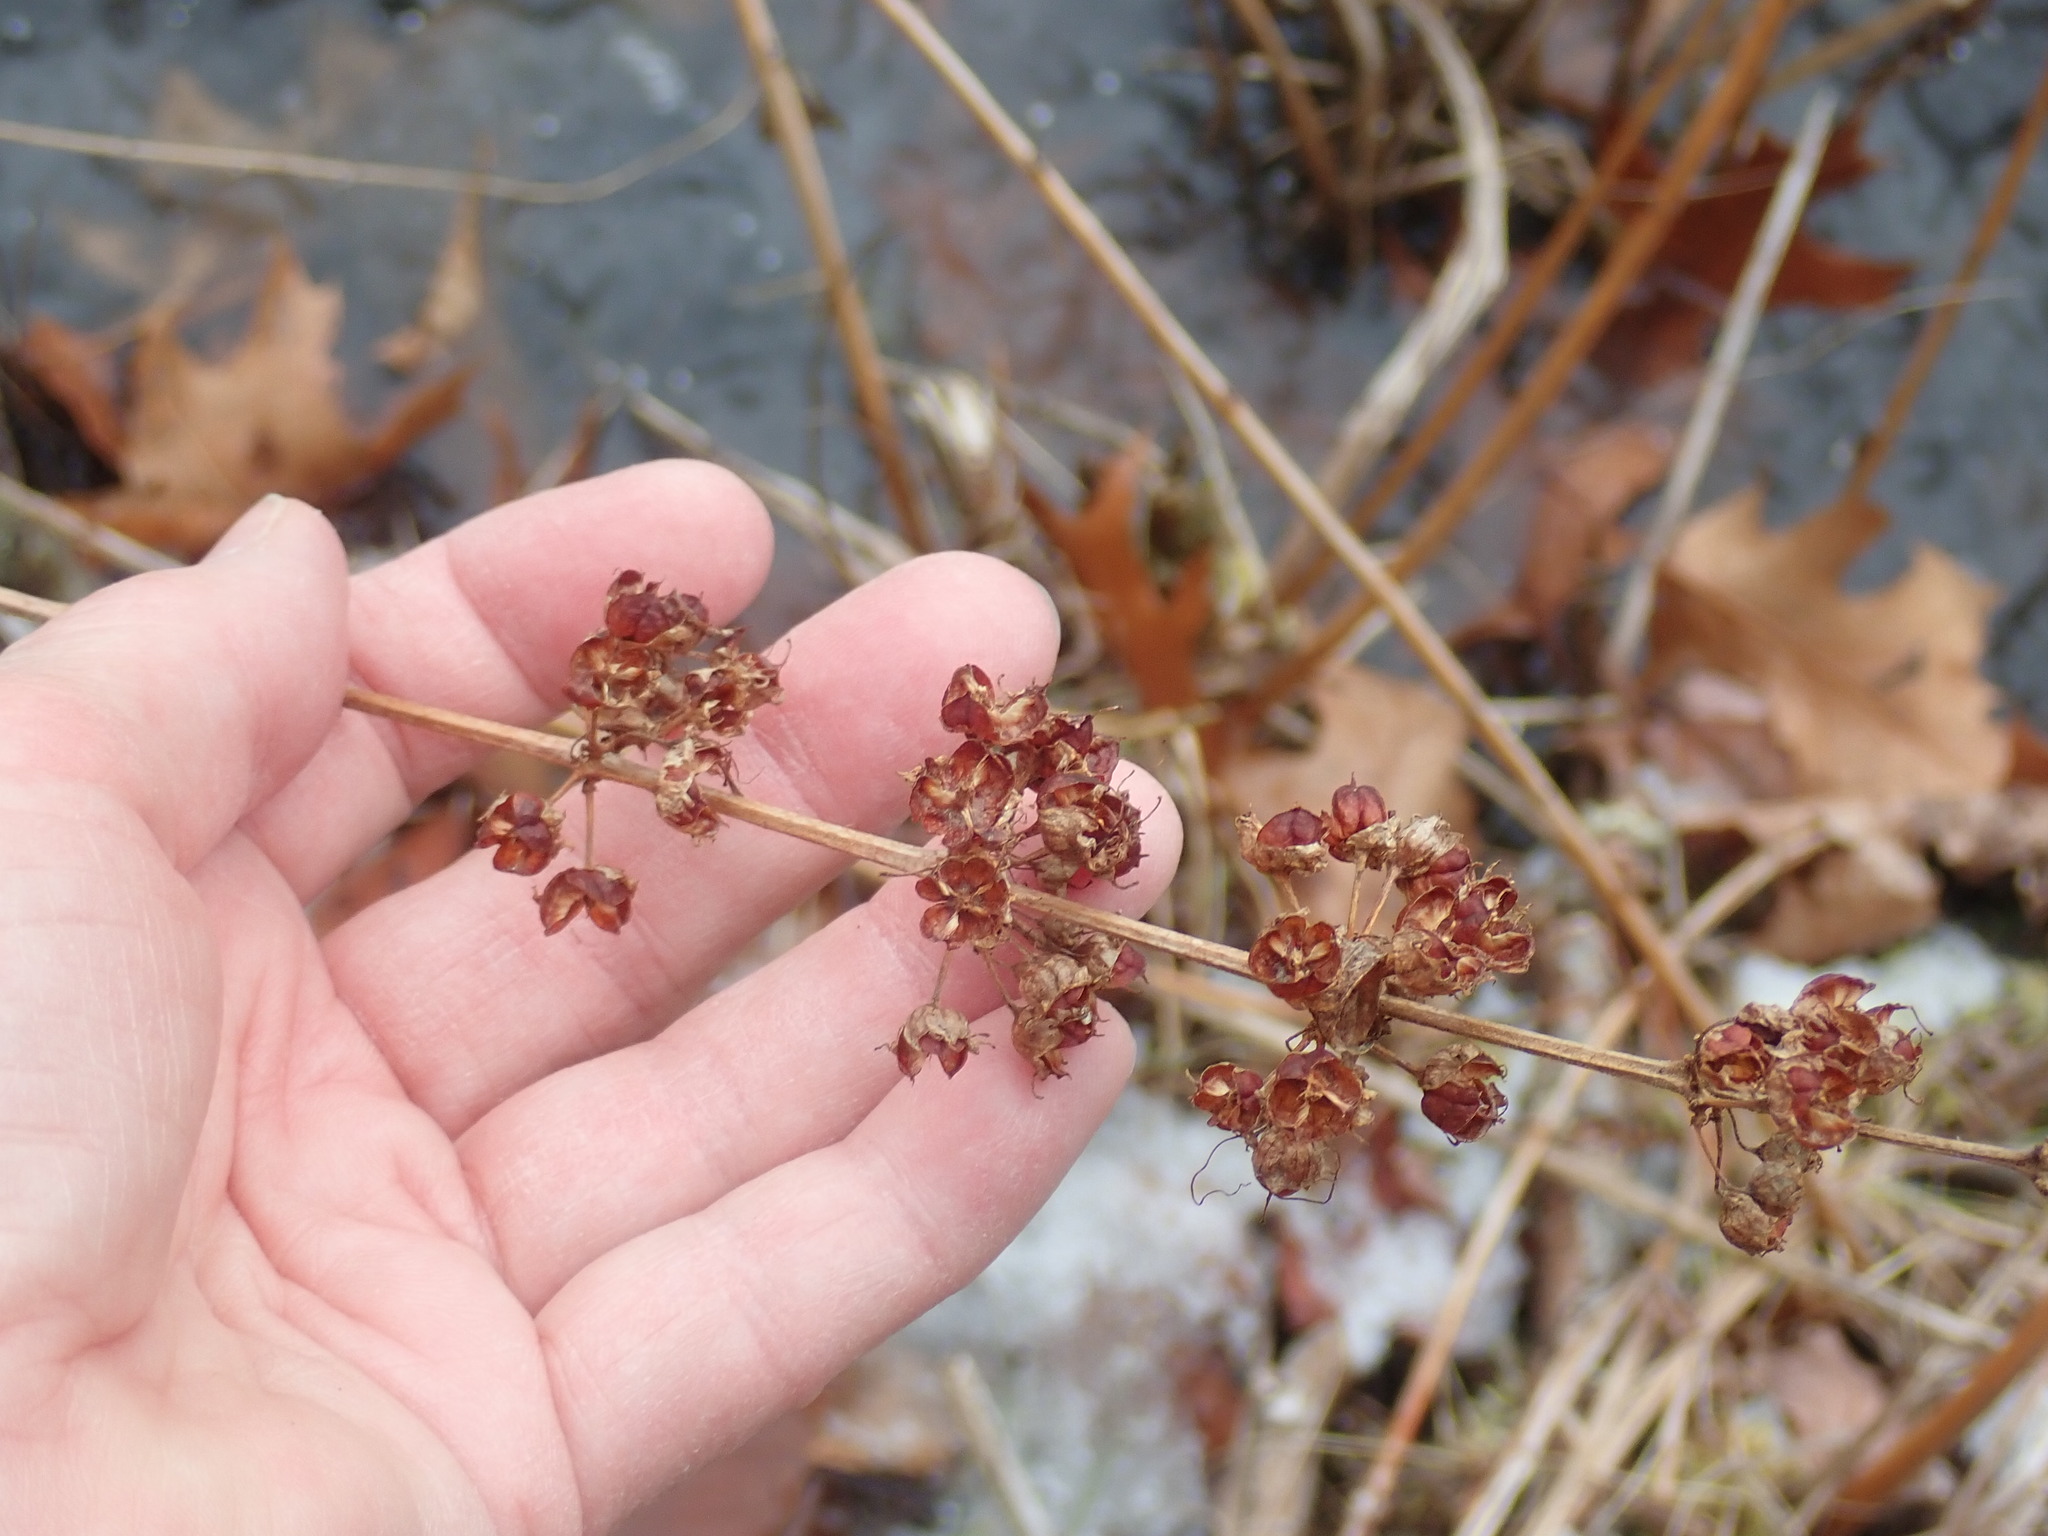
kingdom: Plantae
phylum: Tracheophyta
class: Magnoliopsida
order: Myrtales
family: Lythraceae
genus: Decodon
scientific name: Decodon verticillatus
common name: Hairy swamp loosestrife
